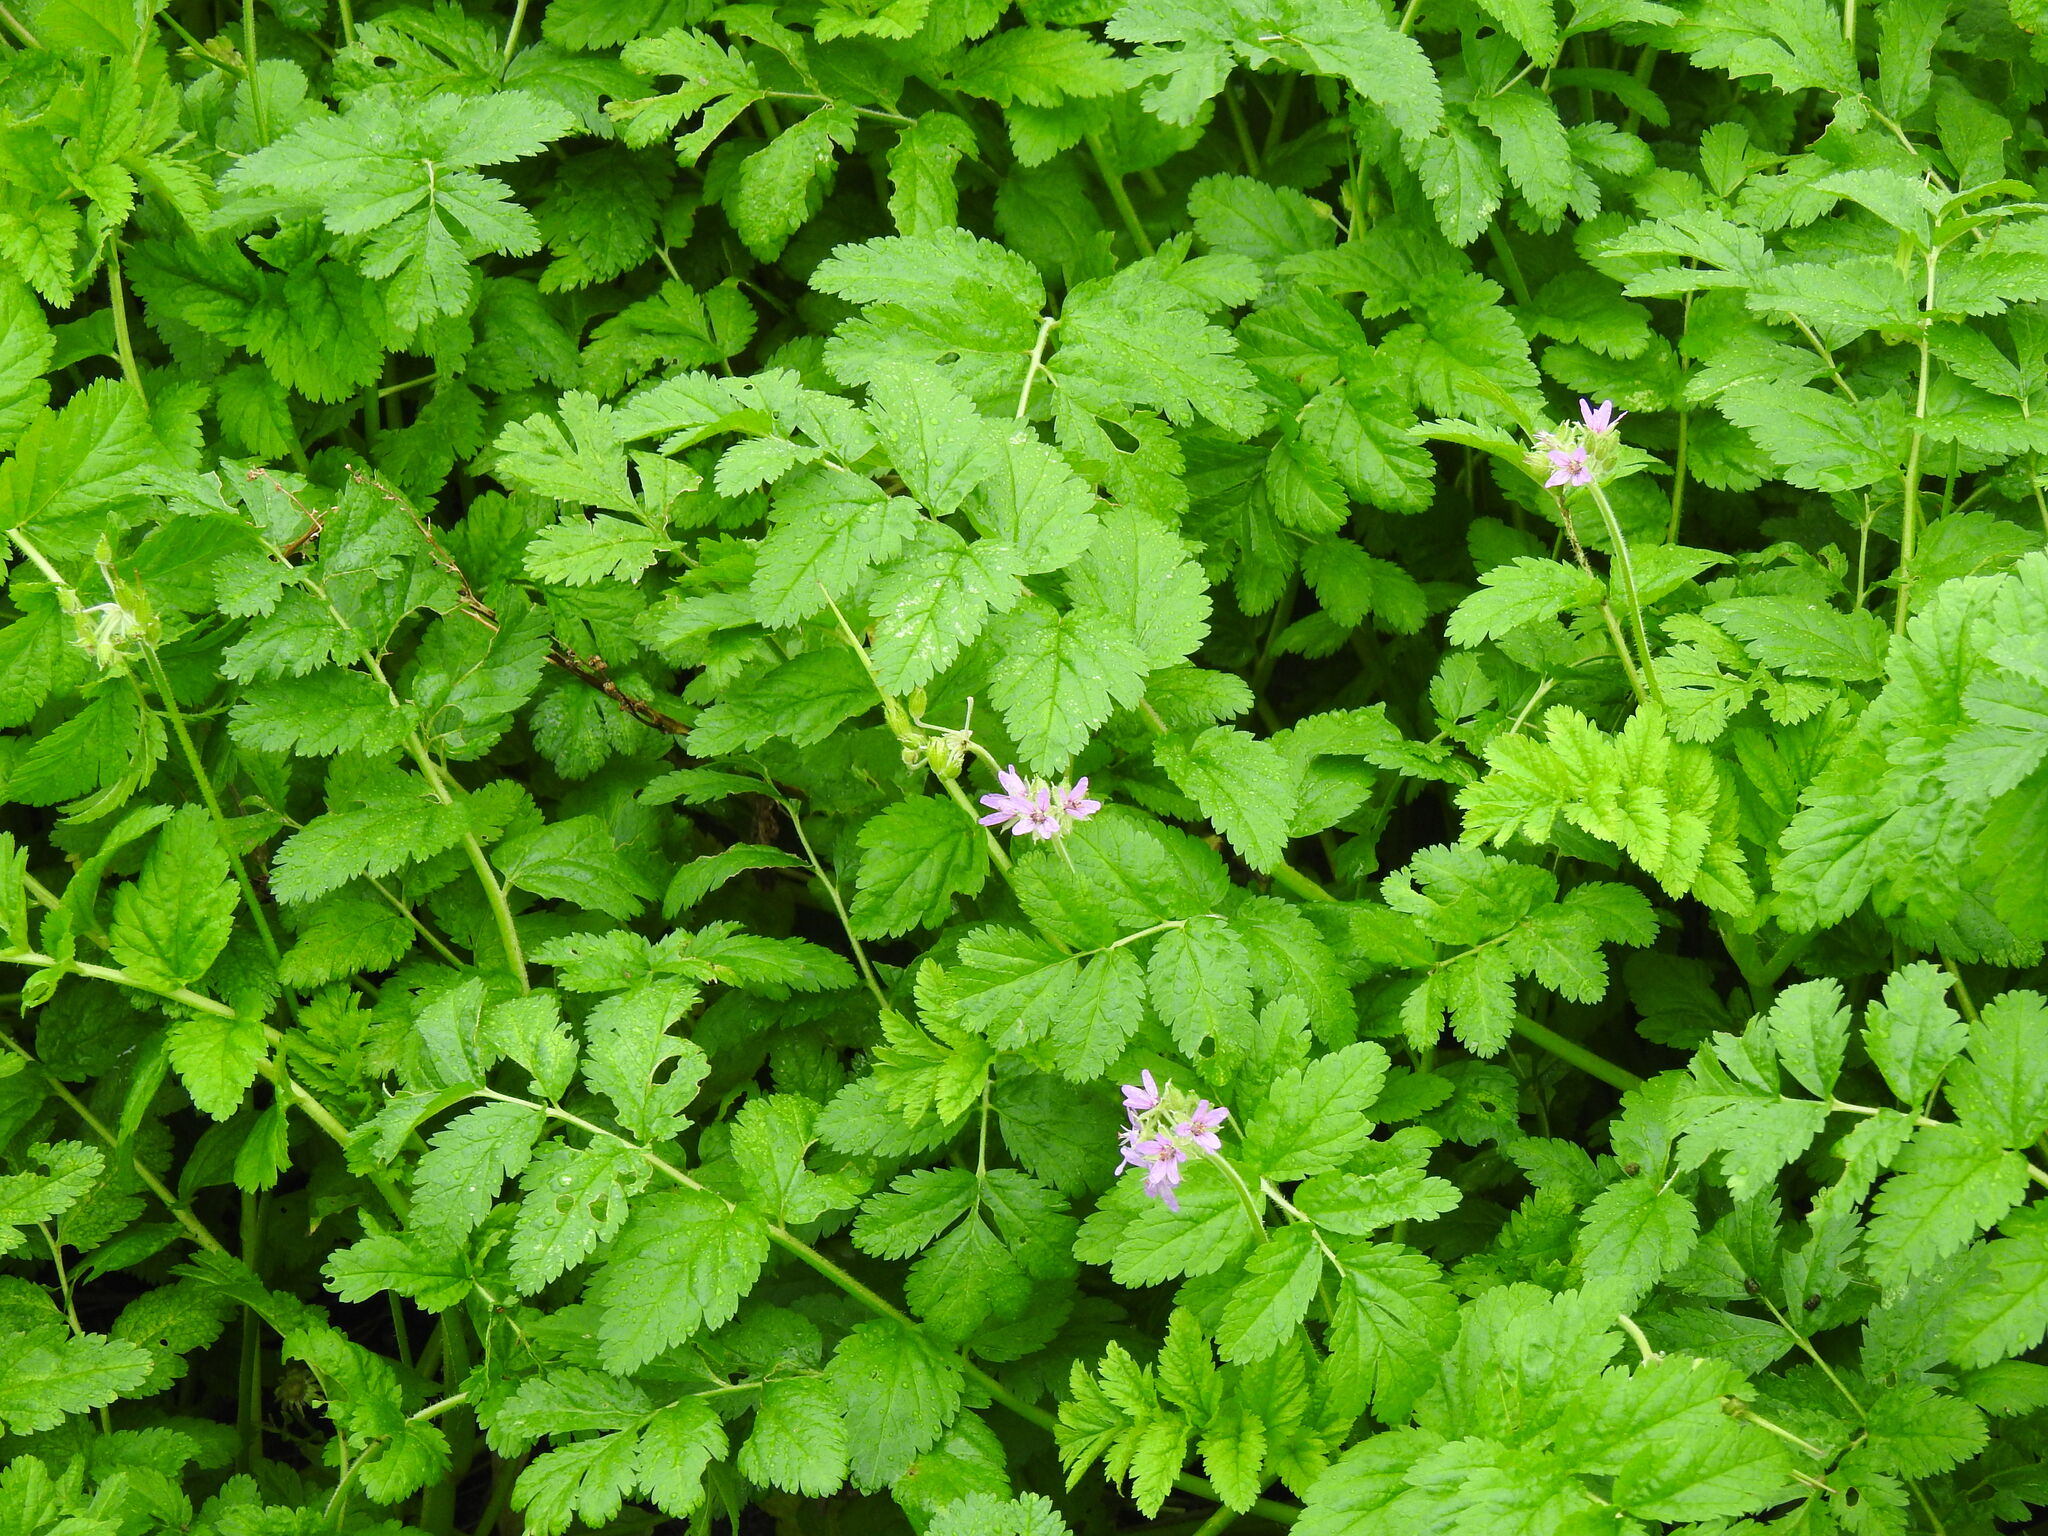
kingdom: Plantae
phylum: Tracheophyta
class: Magnoliopsida
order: Geraniales
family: Geraniaceae
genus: Erodium
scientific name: Erodium moschatum
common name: Musk stork's-bill
